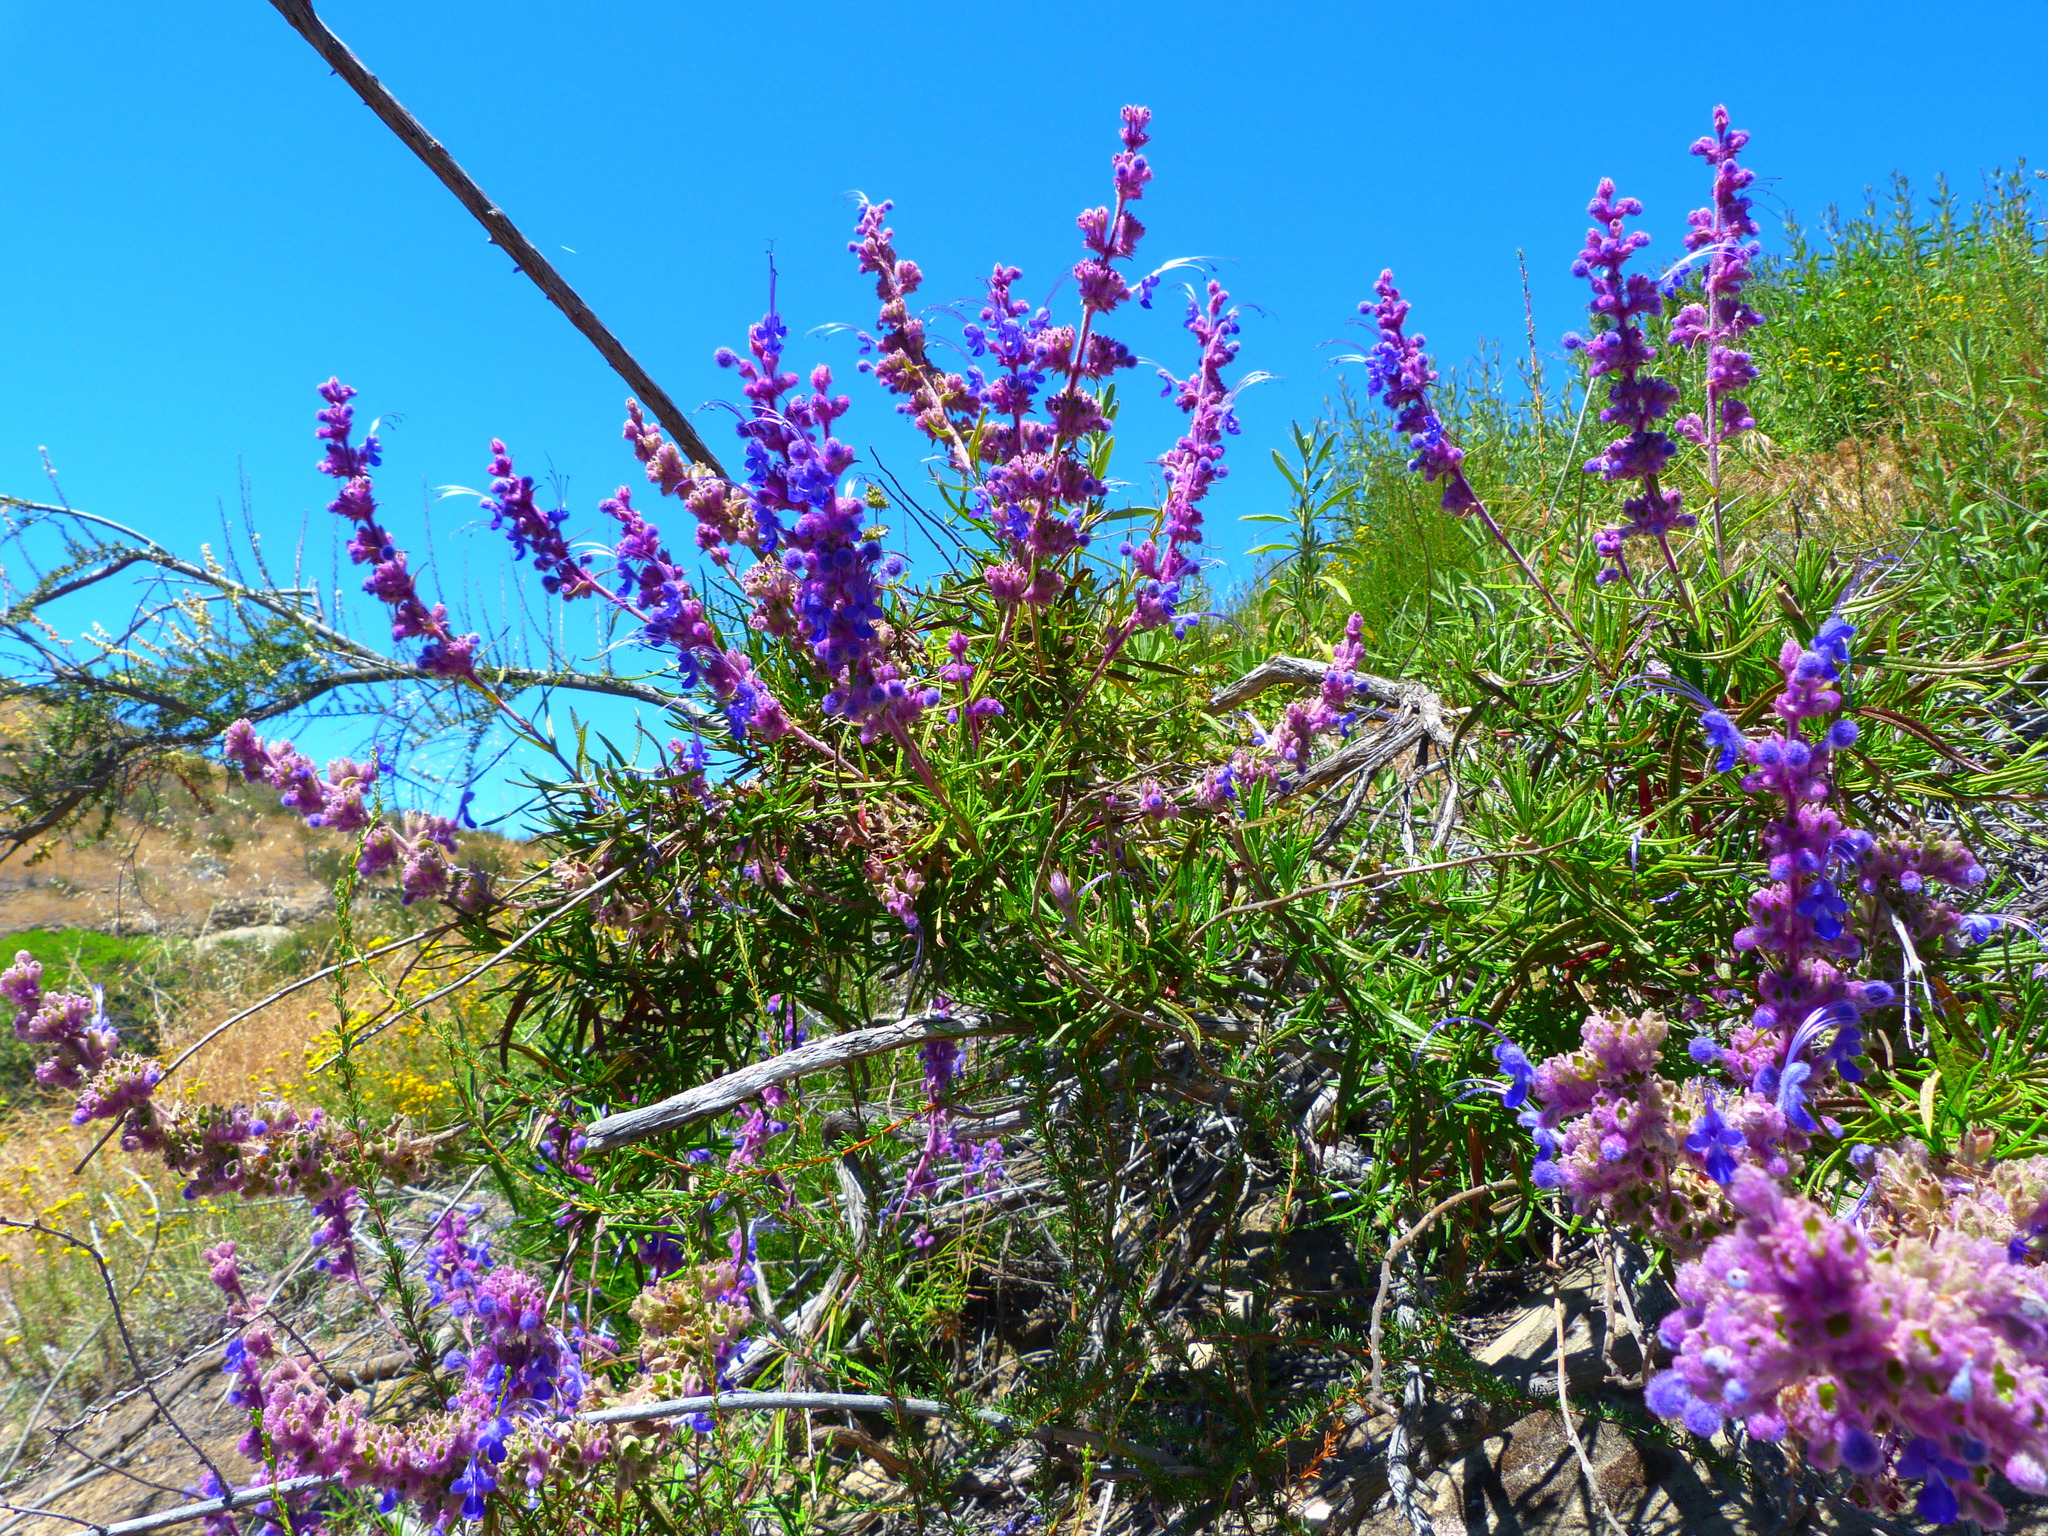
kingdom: Plantae
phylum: Tracheophyta
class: Magnoliopsida
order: Lamiales
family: Lamiaceae
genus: Trichostema
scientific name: Trichostema lanatum
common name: Woolly bluecurls
